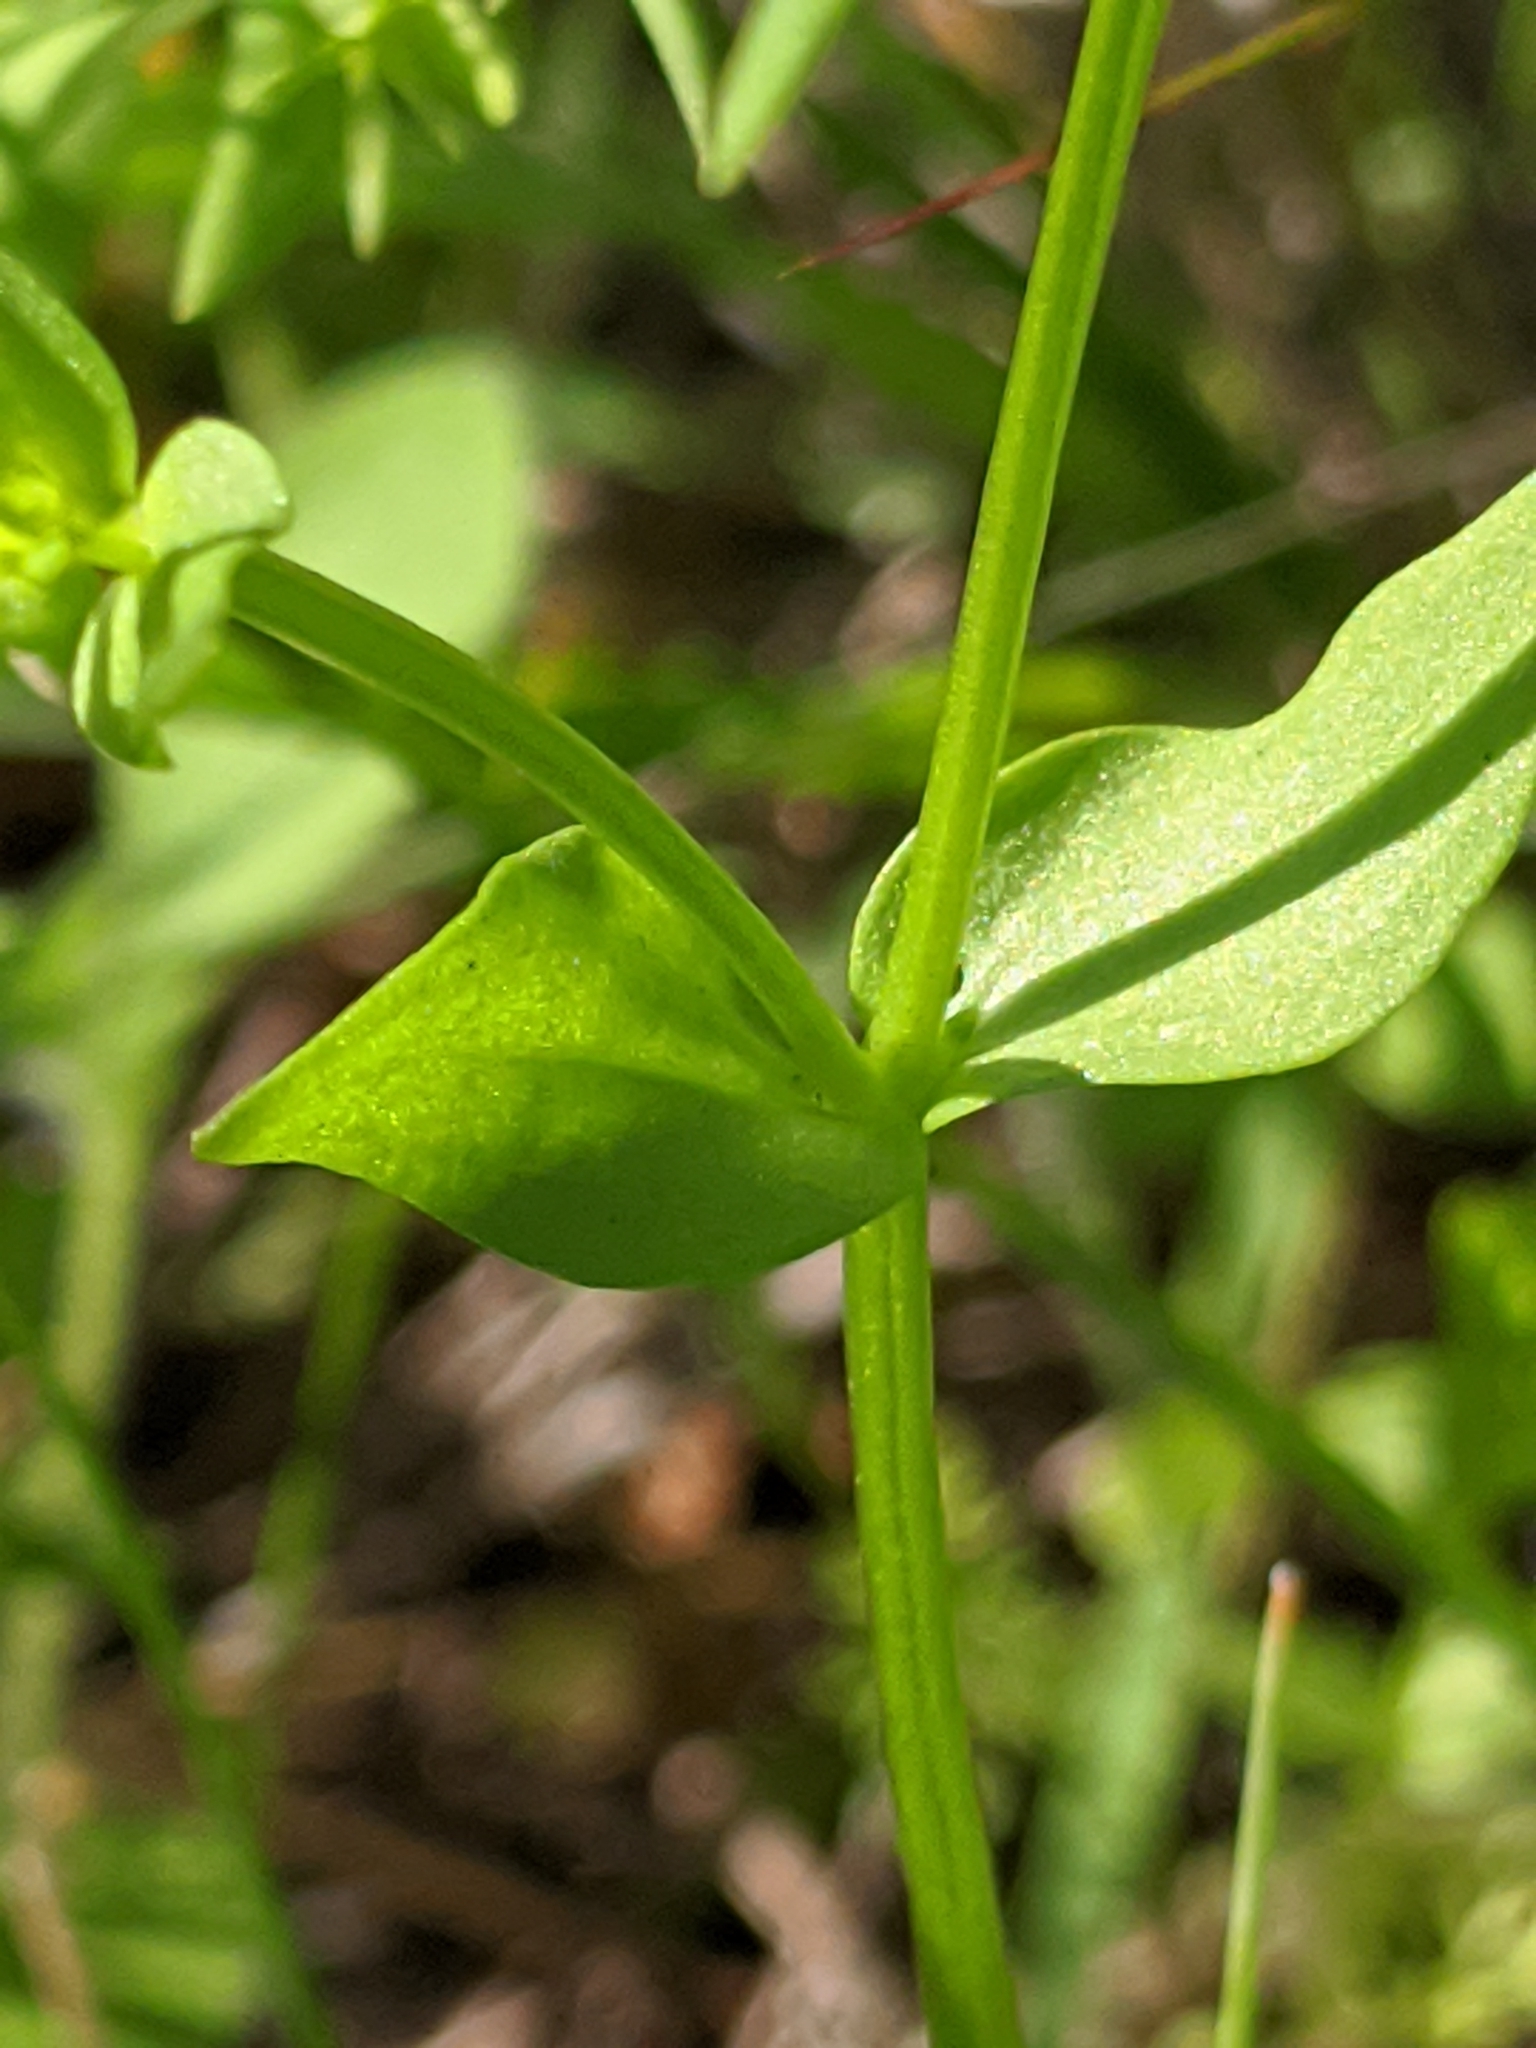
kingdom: Plantae
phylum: Tracheophyta
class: Magnoliopsida
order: Gentianales
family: Gentianaceae
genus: Sabatia
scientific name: Sabatia campestris
